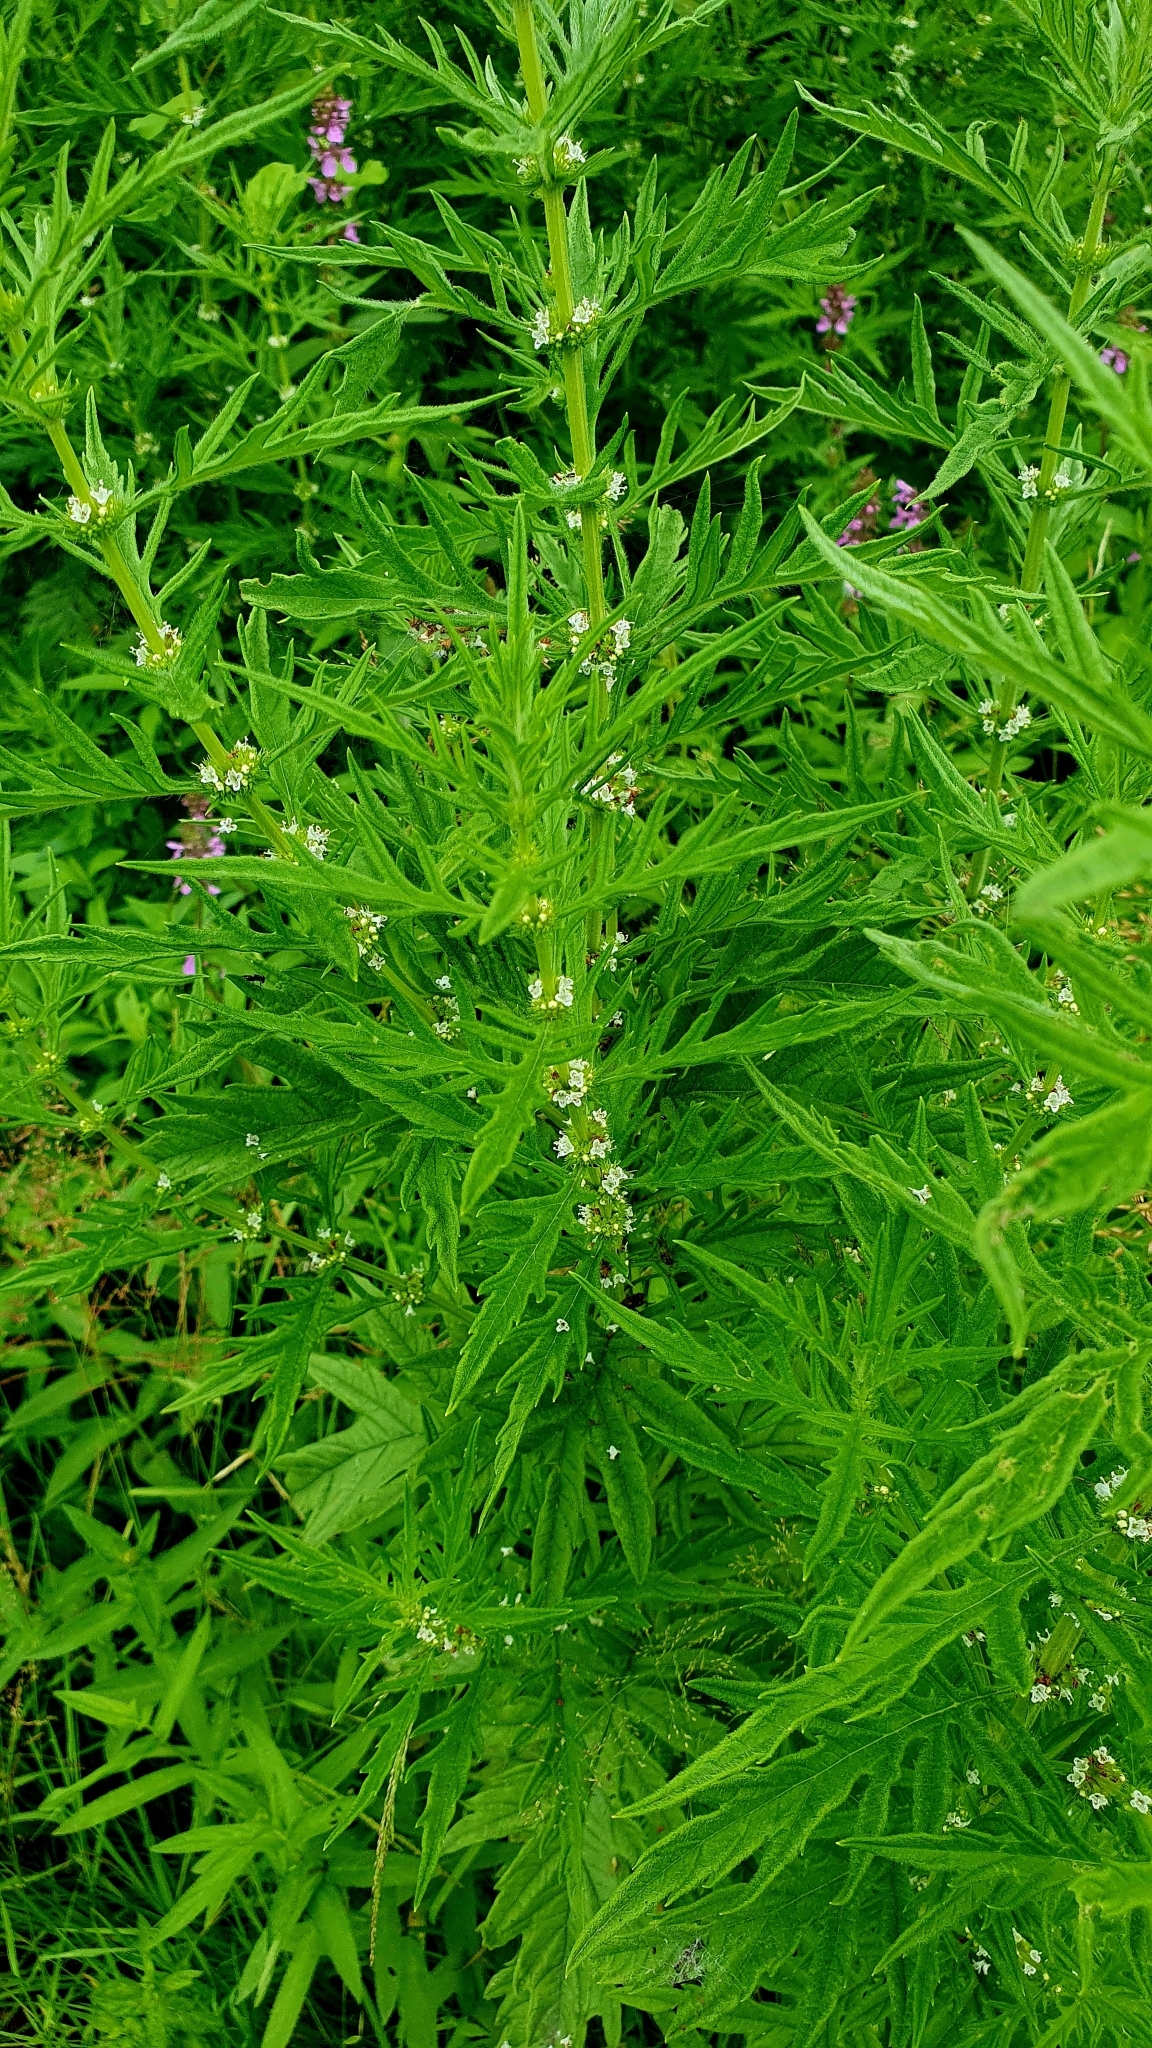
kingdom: Plantae
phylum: Tracheophyta
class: Magnoliopsida
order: Lamiales
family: Lamiaceae
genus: Lycopus
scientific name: Lycopus exaltatus
